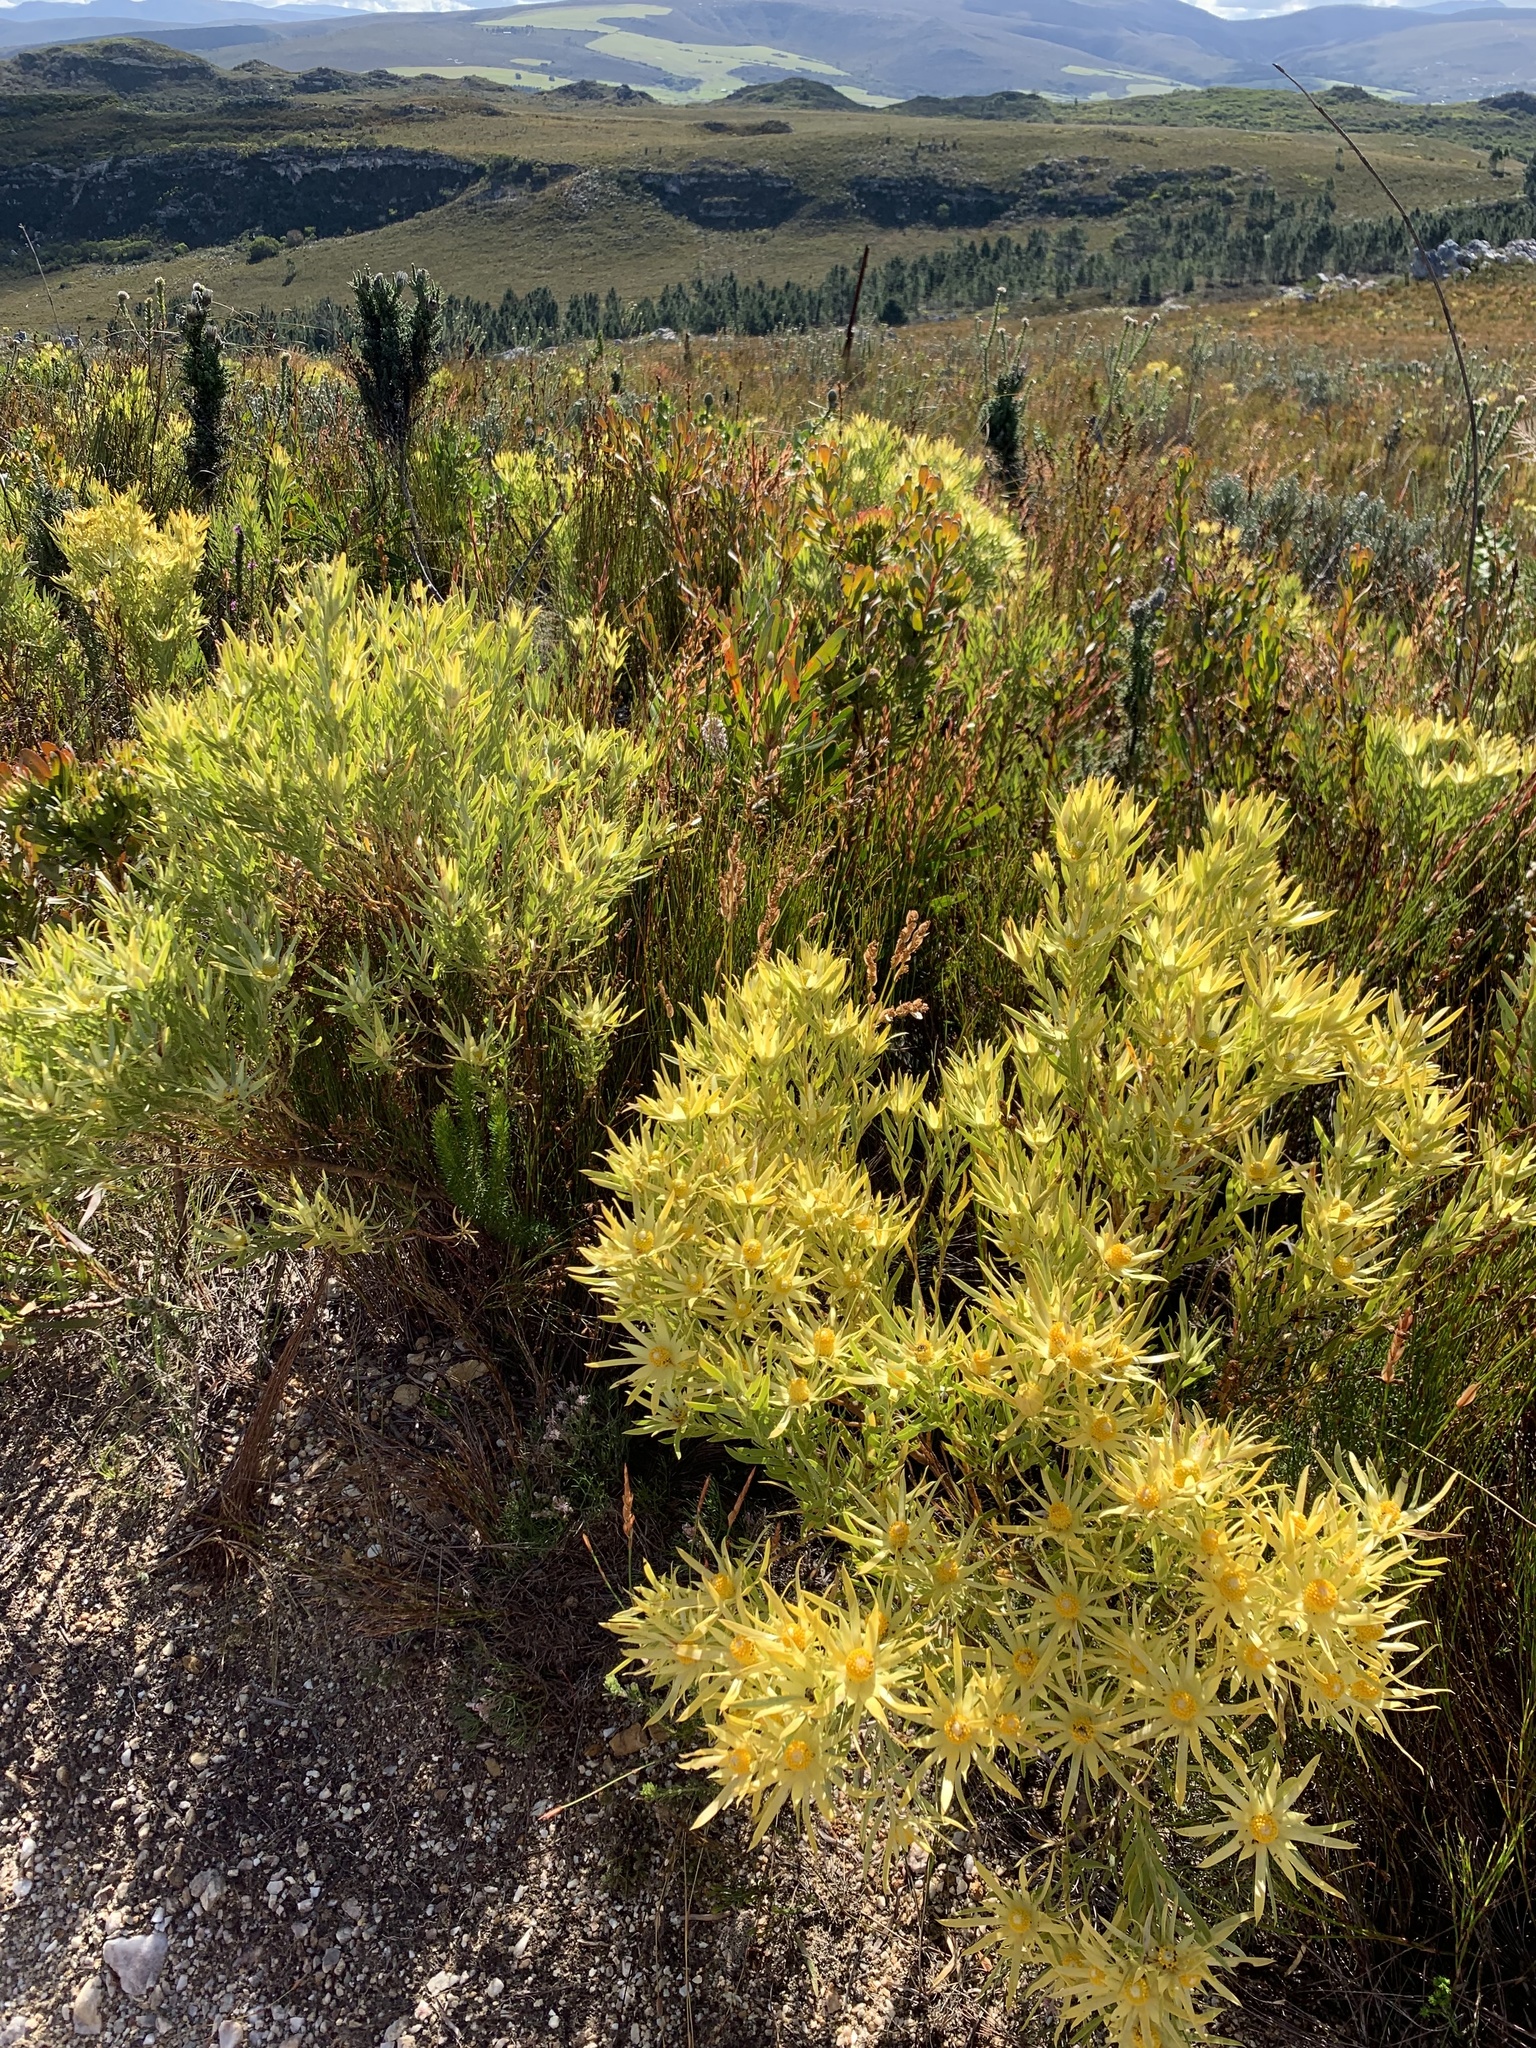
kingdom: Plantae
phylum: Tracheophyta
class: Magnoliopsida
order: Proteales
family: Proteaceae
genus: Leucadendron
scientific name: Leucadendron xanthoconus
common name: Sickle-leaf conebush
